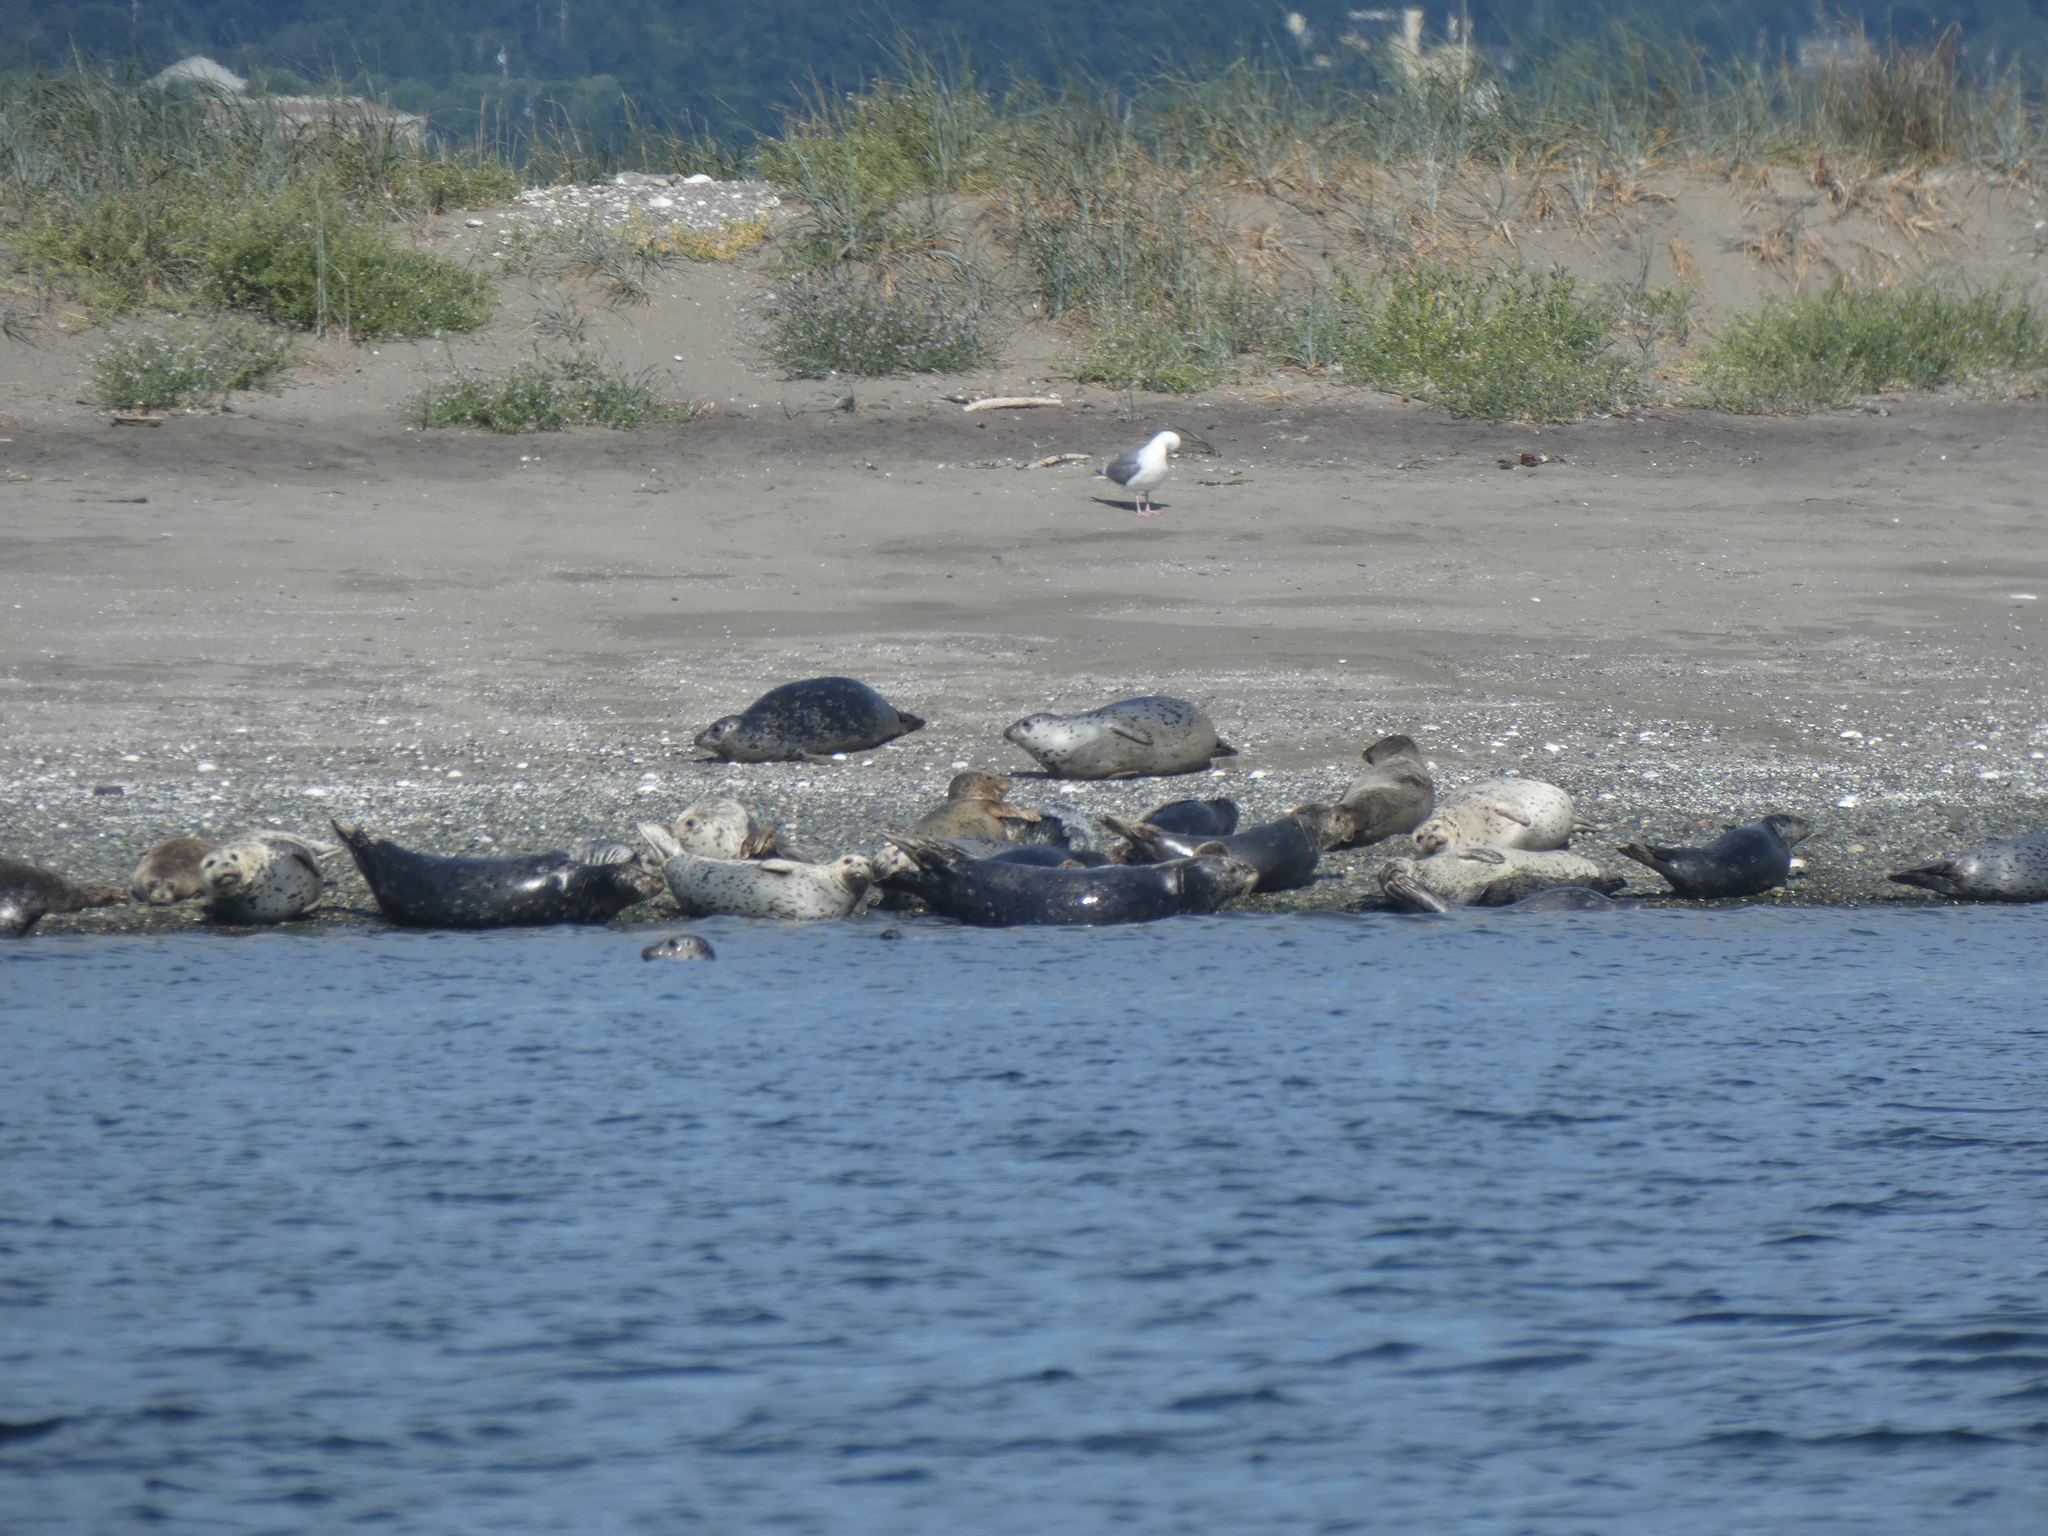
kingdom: Animalia
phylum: Chordata
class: Mammalia
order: Carnivora
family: Phocidae
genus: Phoca
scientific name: Phoca vitulina
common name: Harbor seal
